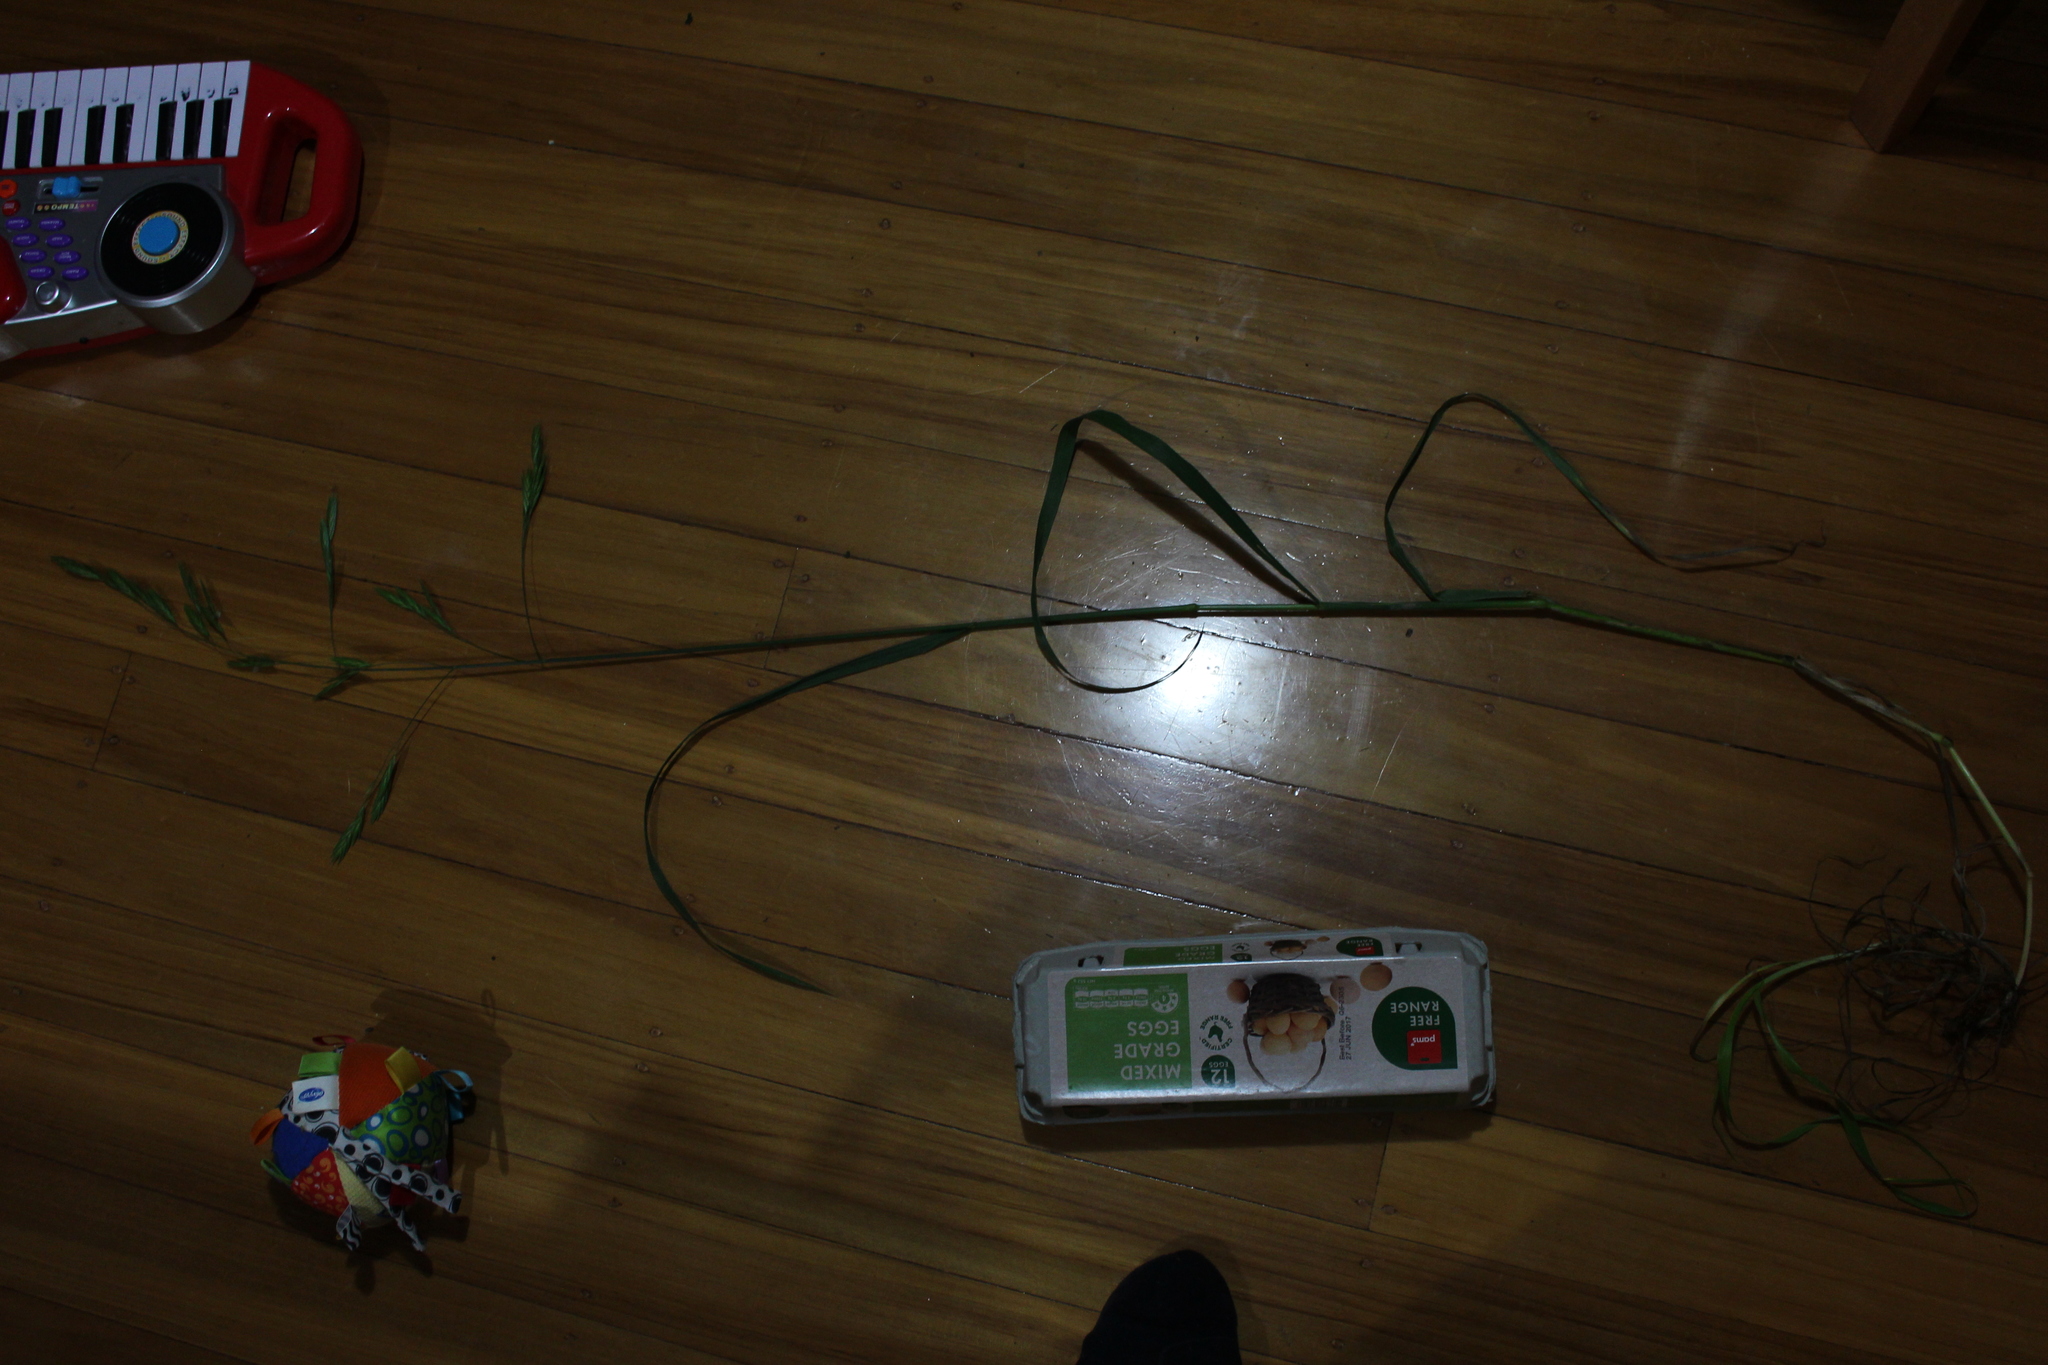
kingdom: Plantae
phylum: Tracheophyta
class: Liliopsida
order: Poales
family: Poaceae
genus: Bromus
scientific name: Bromus catharticus
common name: Rescuegrass
